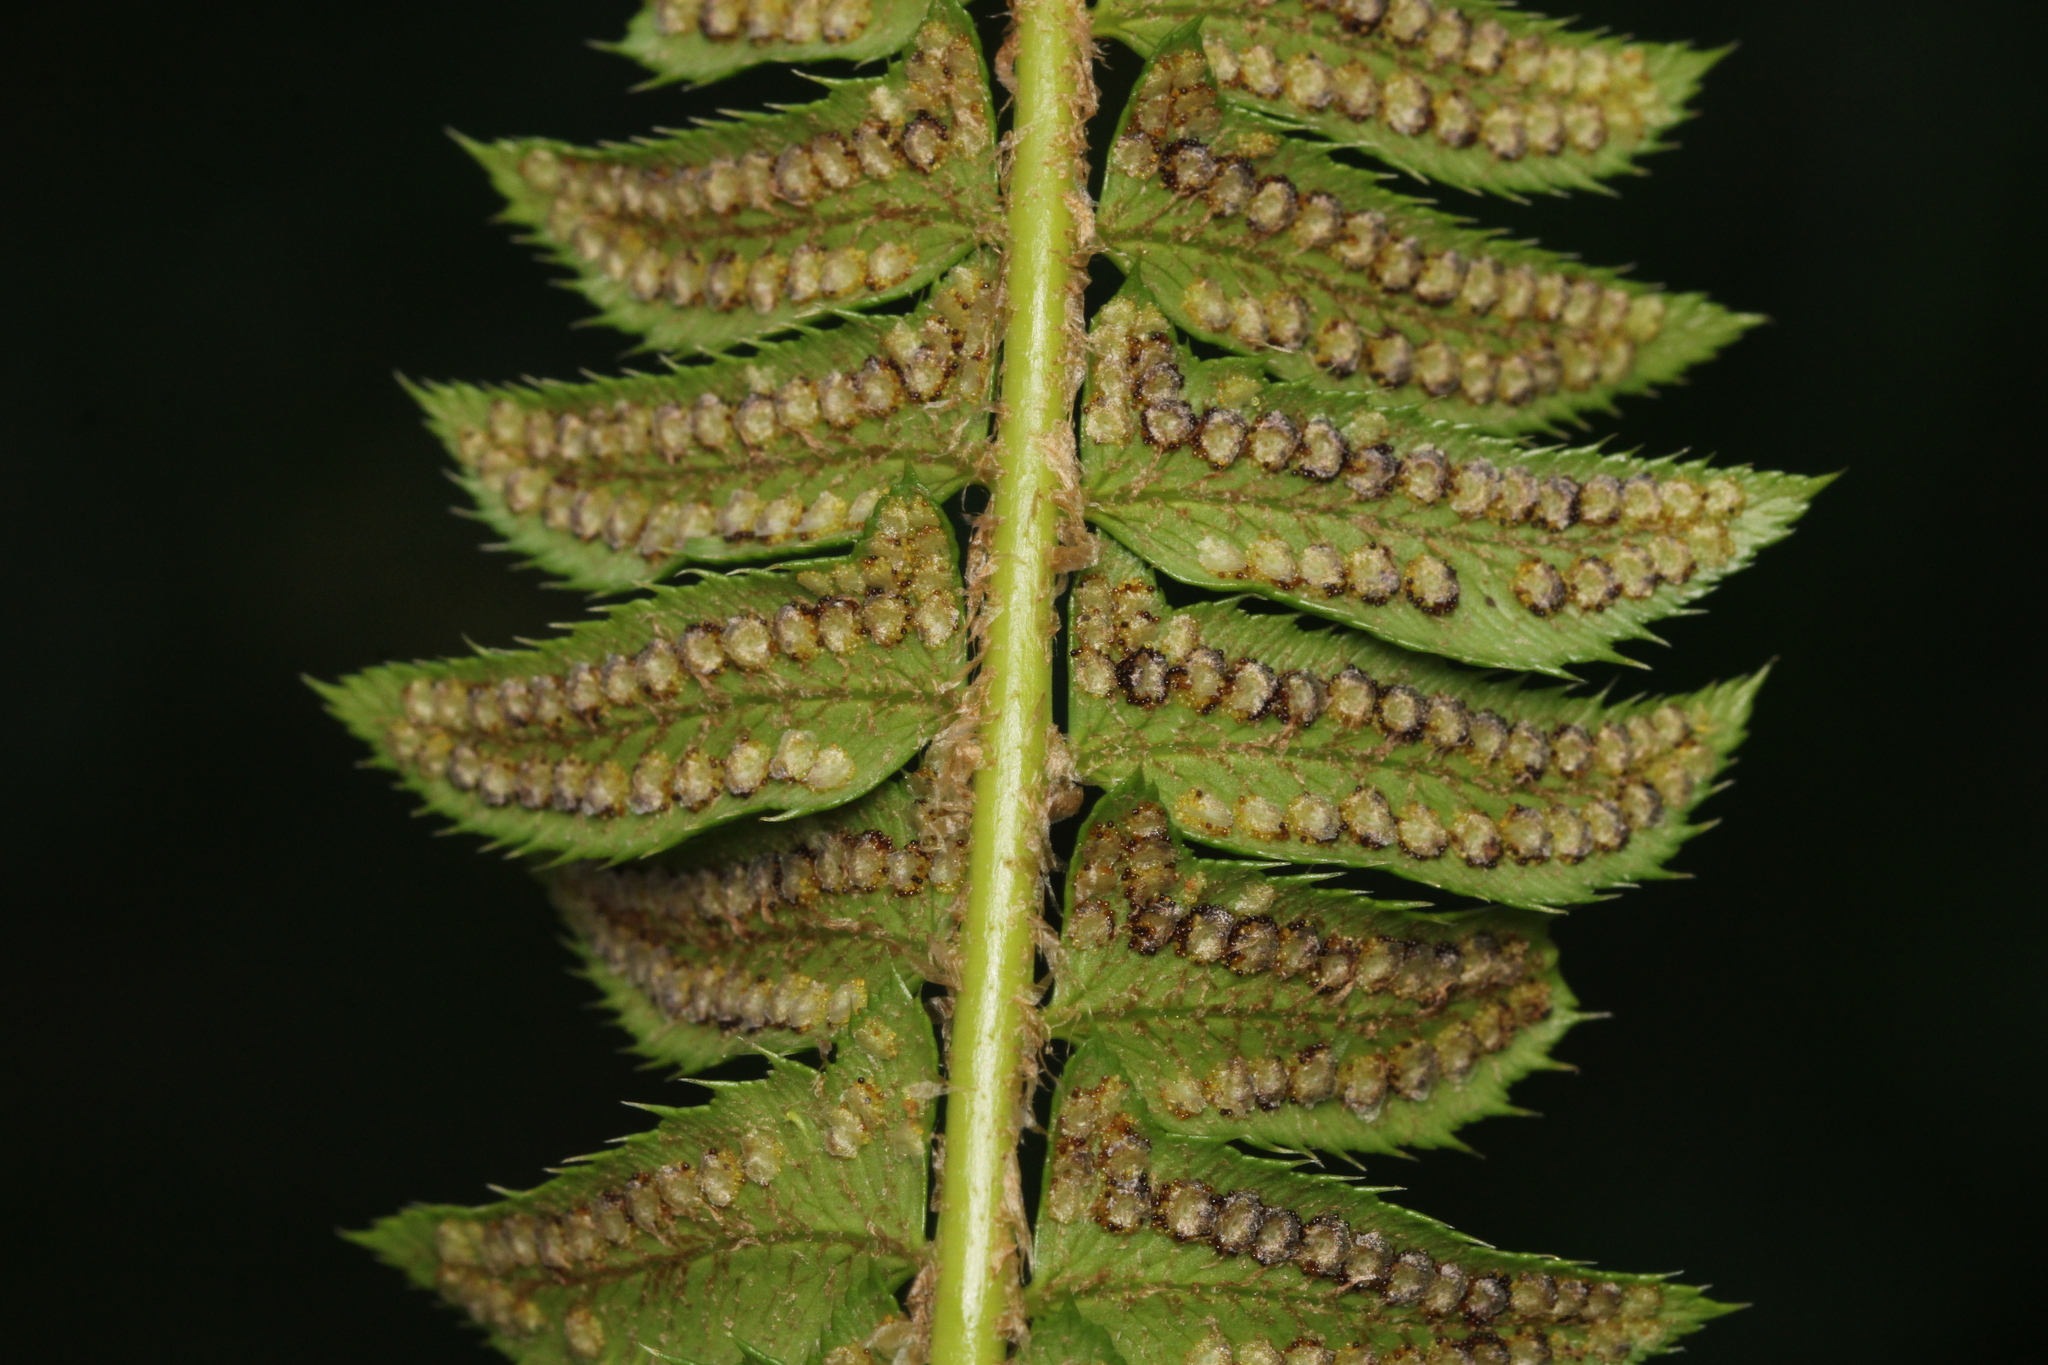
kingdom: Plantae
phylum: Tracheophyta
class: Polypodiopsida
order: Polypodiales
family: Dryopteridaceae
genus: Polystichum
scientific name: Polystichum lonchitis
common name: Holly fern
